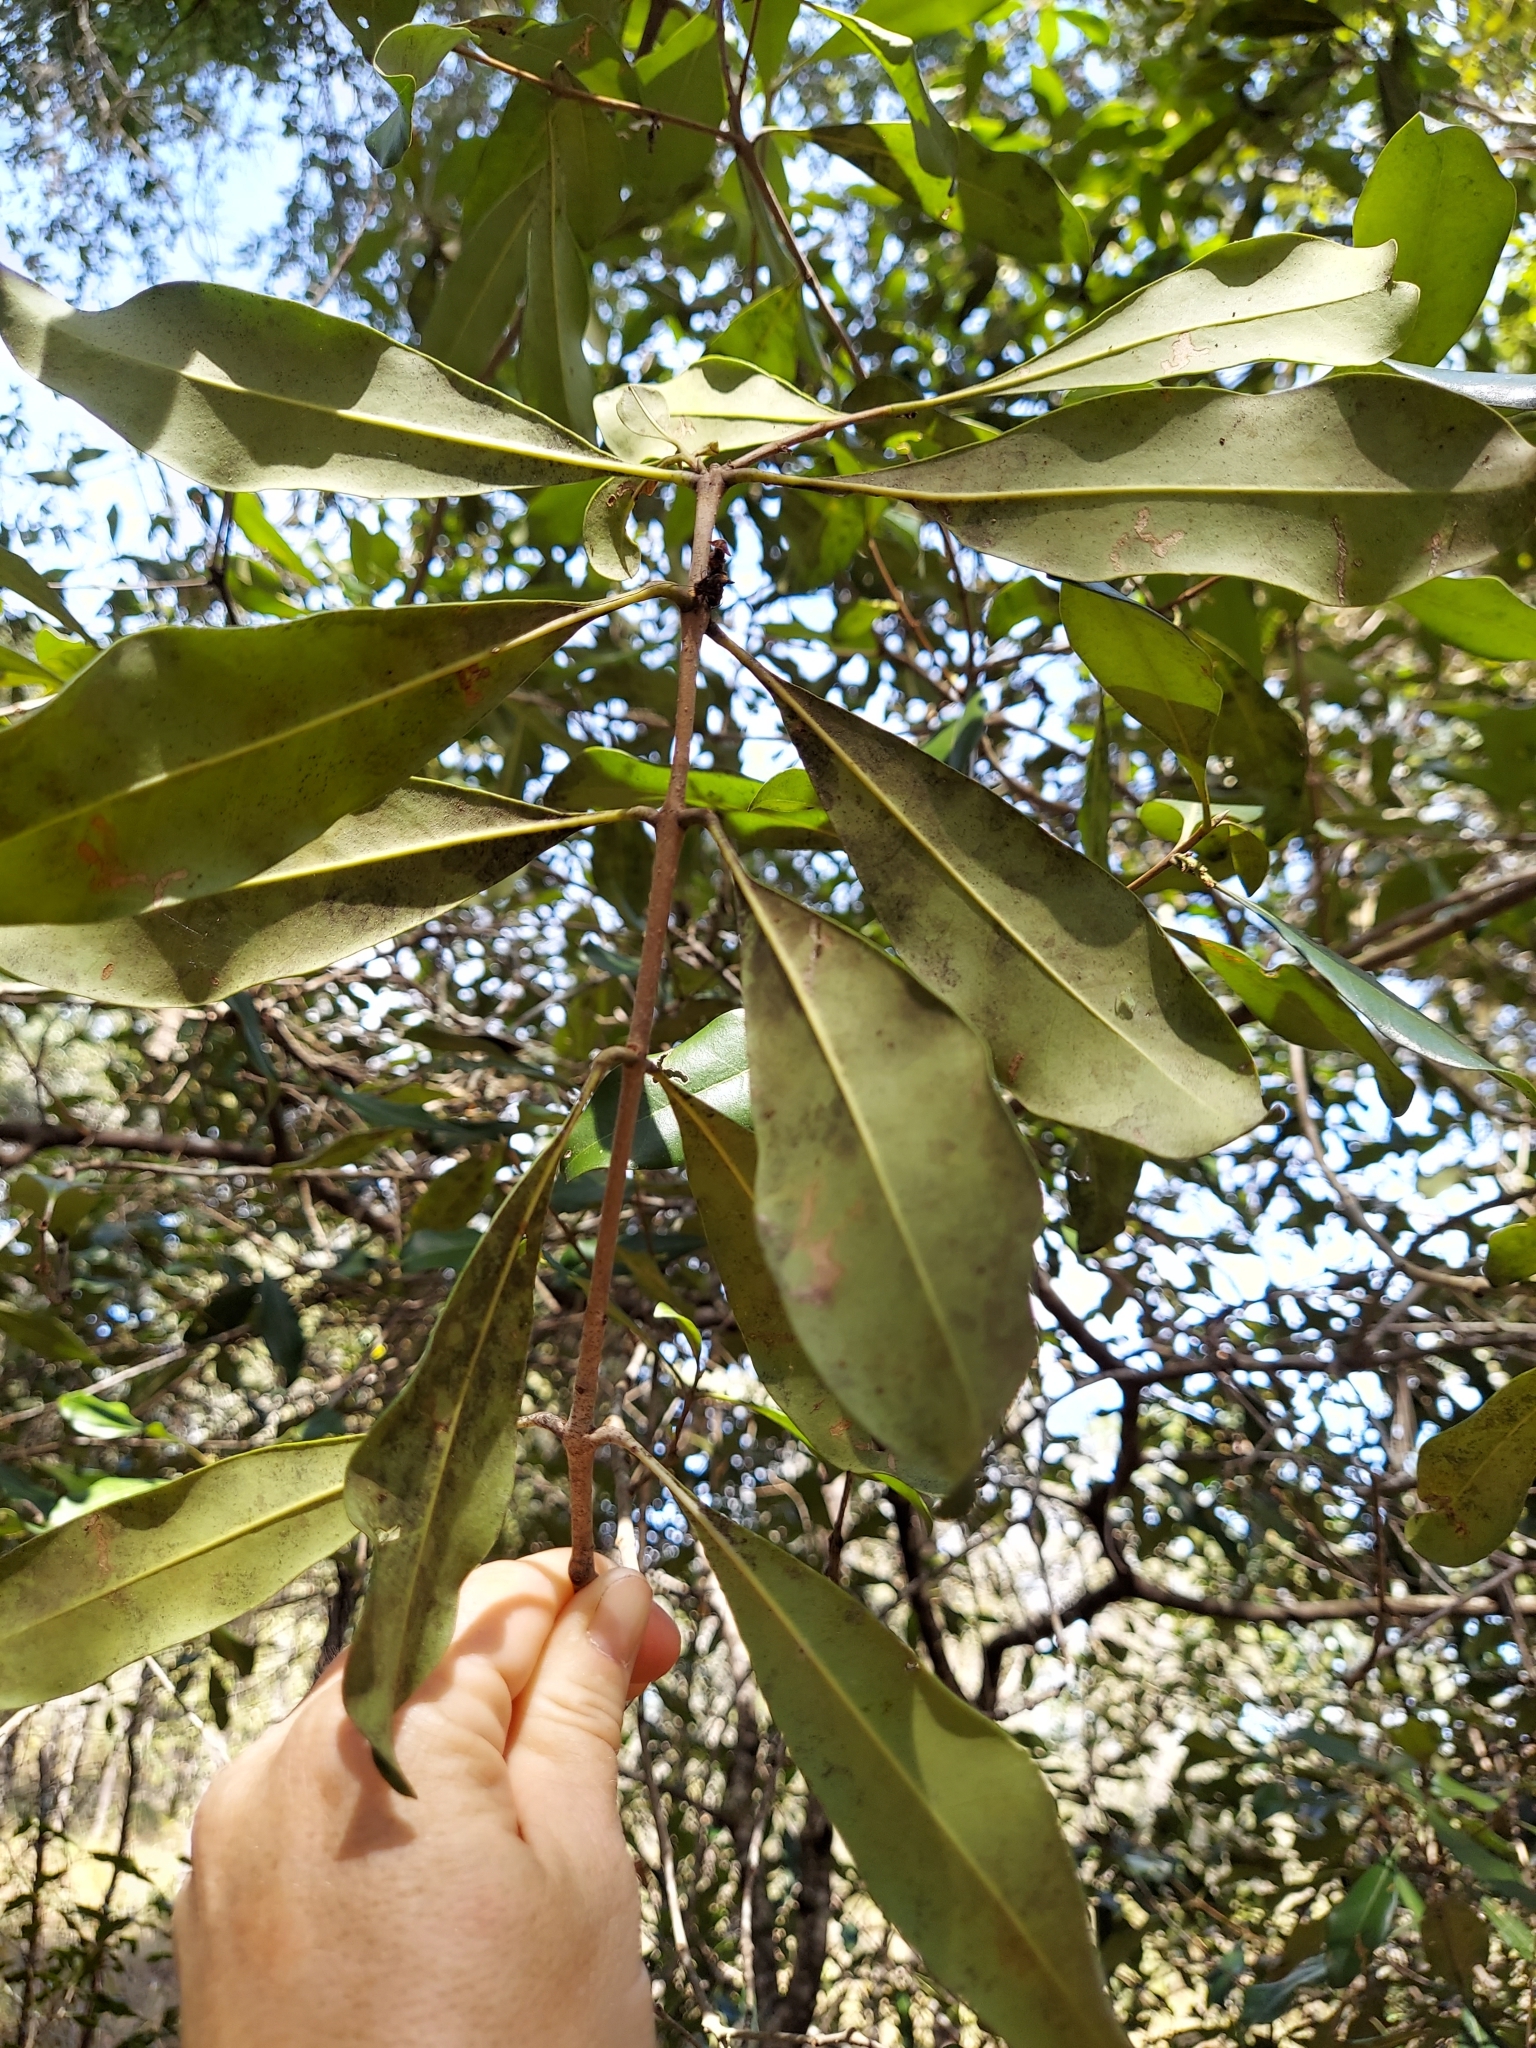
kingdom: Plantae
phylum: Tracheophyta
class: Magnoliopsida
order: Lamiales
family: Oleaceae
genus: Cartrema
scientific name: Cartrema americana
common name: Devilwood
